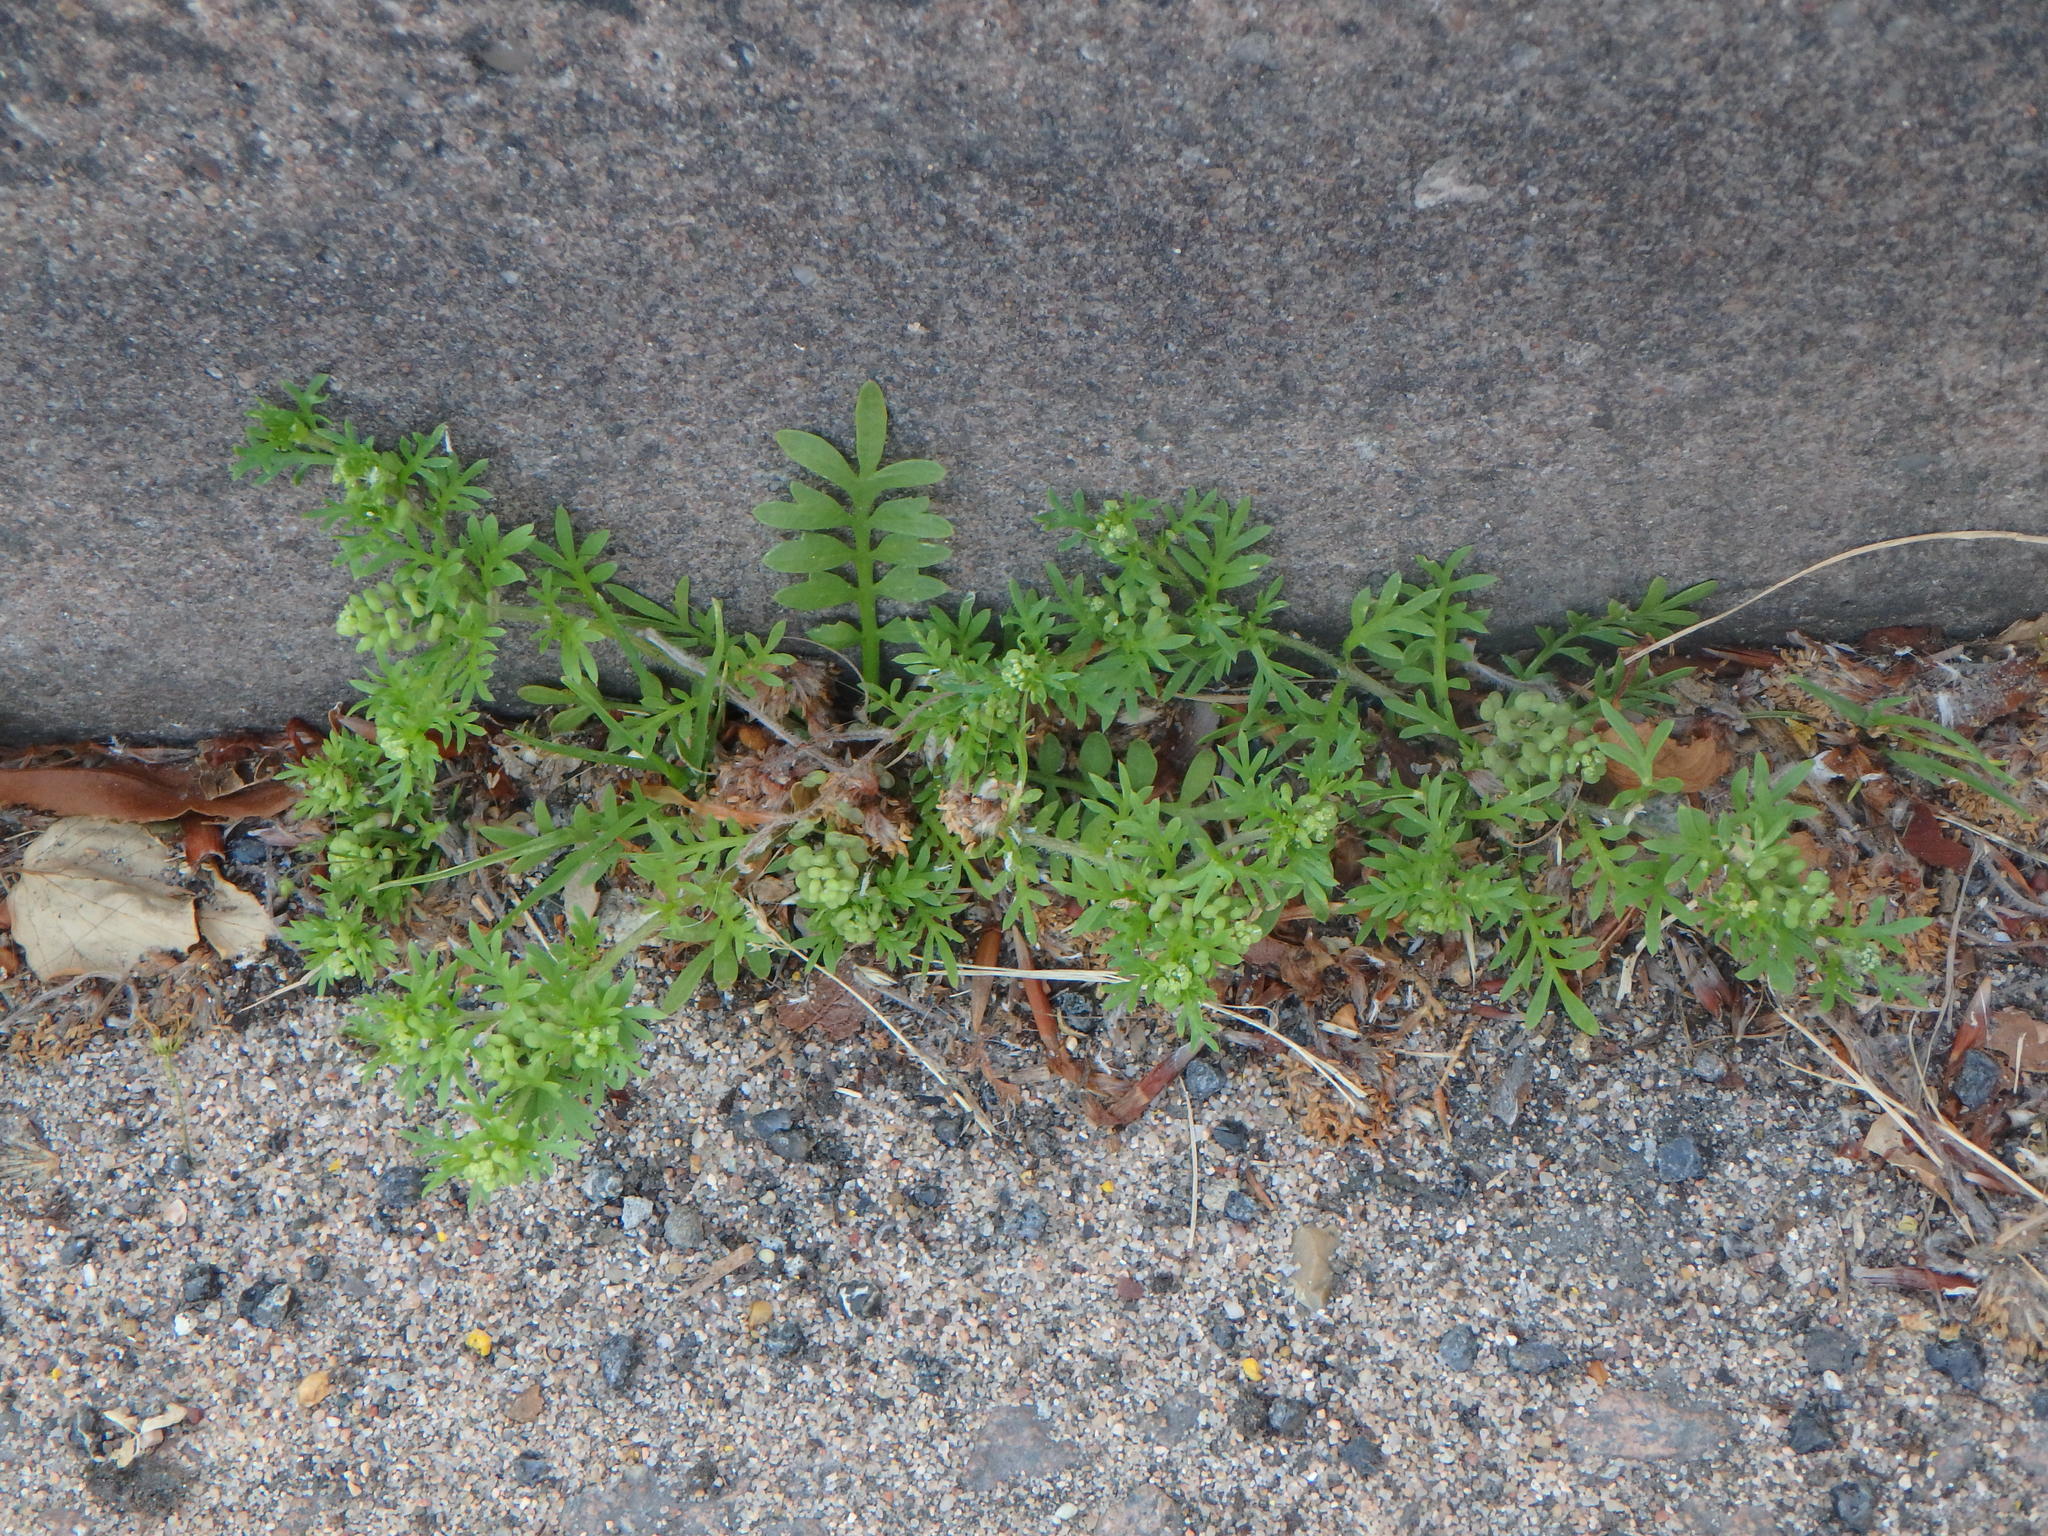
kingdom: Plantae
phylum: Tracheophyta
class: Magnoliopsida
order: Brassicales
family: Brassicaceae
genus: Lepidium
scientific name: Lepidium didymum
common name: Lesser swinecress
